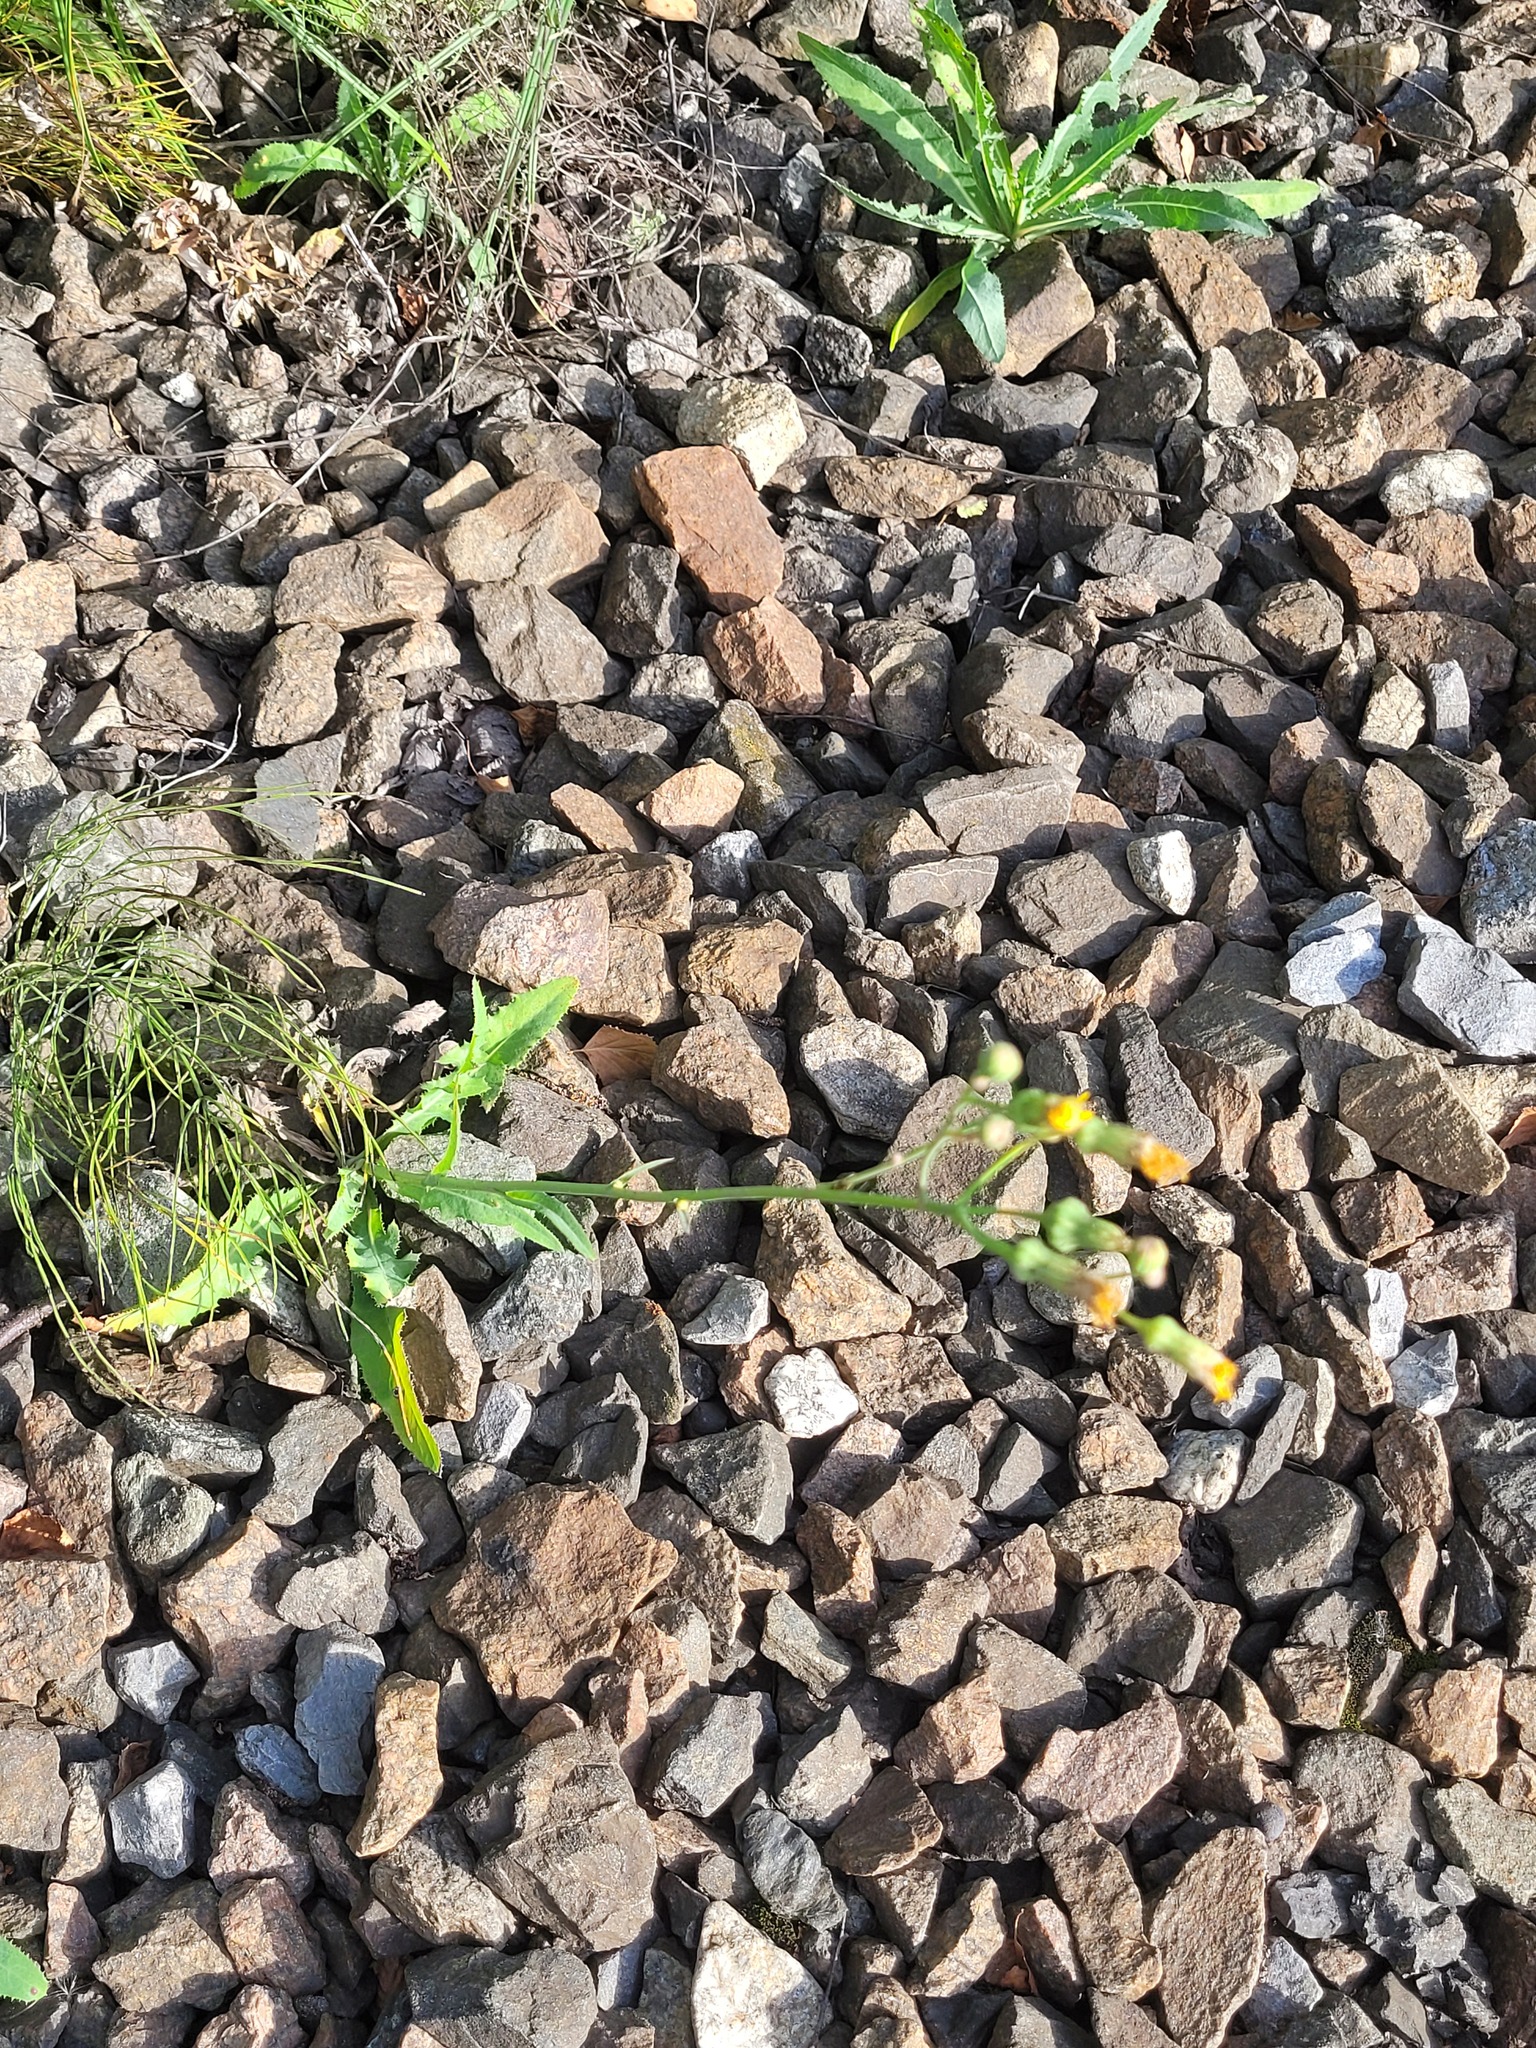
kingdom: Plantae
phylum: Tracheophyta
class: Magnoliopsida
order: Asterales
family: Asteraceae
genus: Sonchus
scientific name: Sonchus arvensis
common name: Perennial sow-thistle
